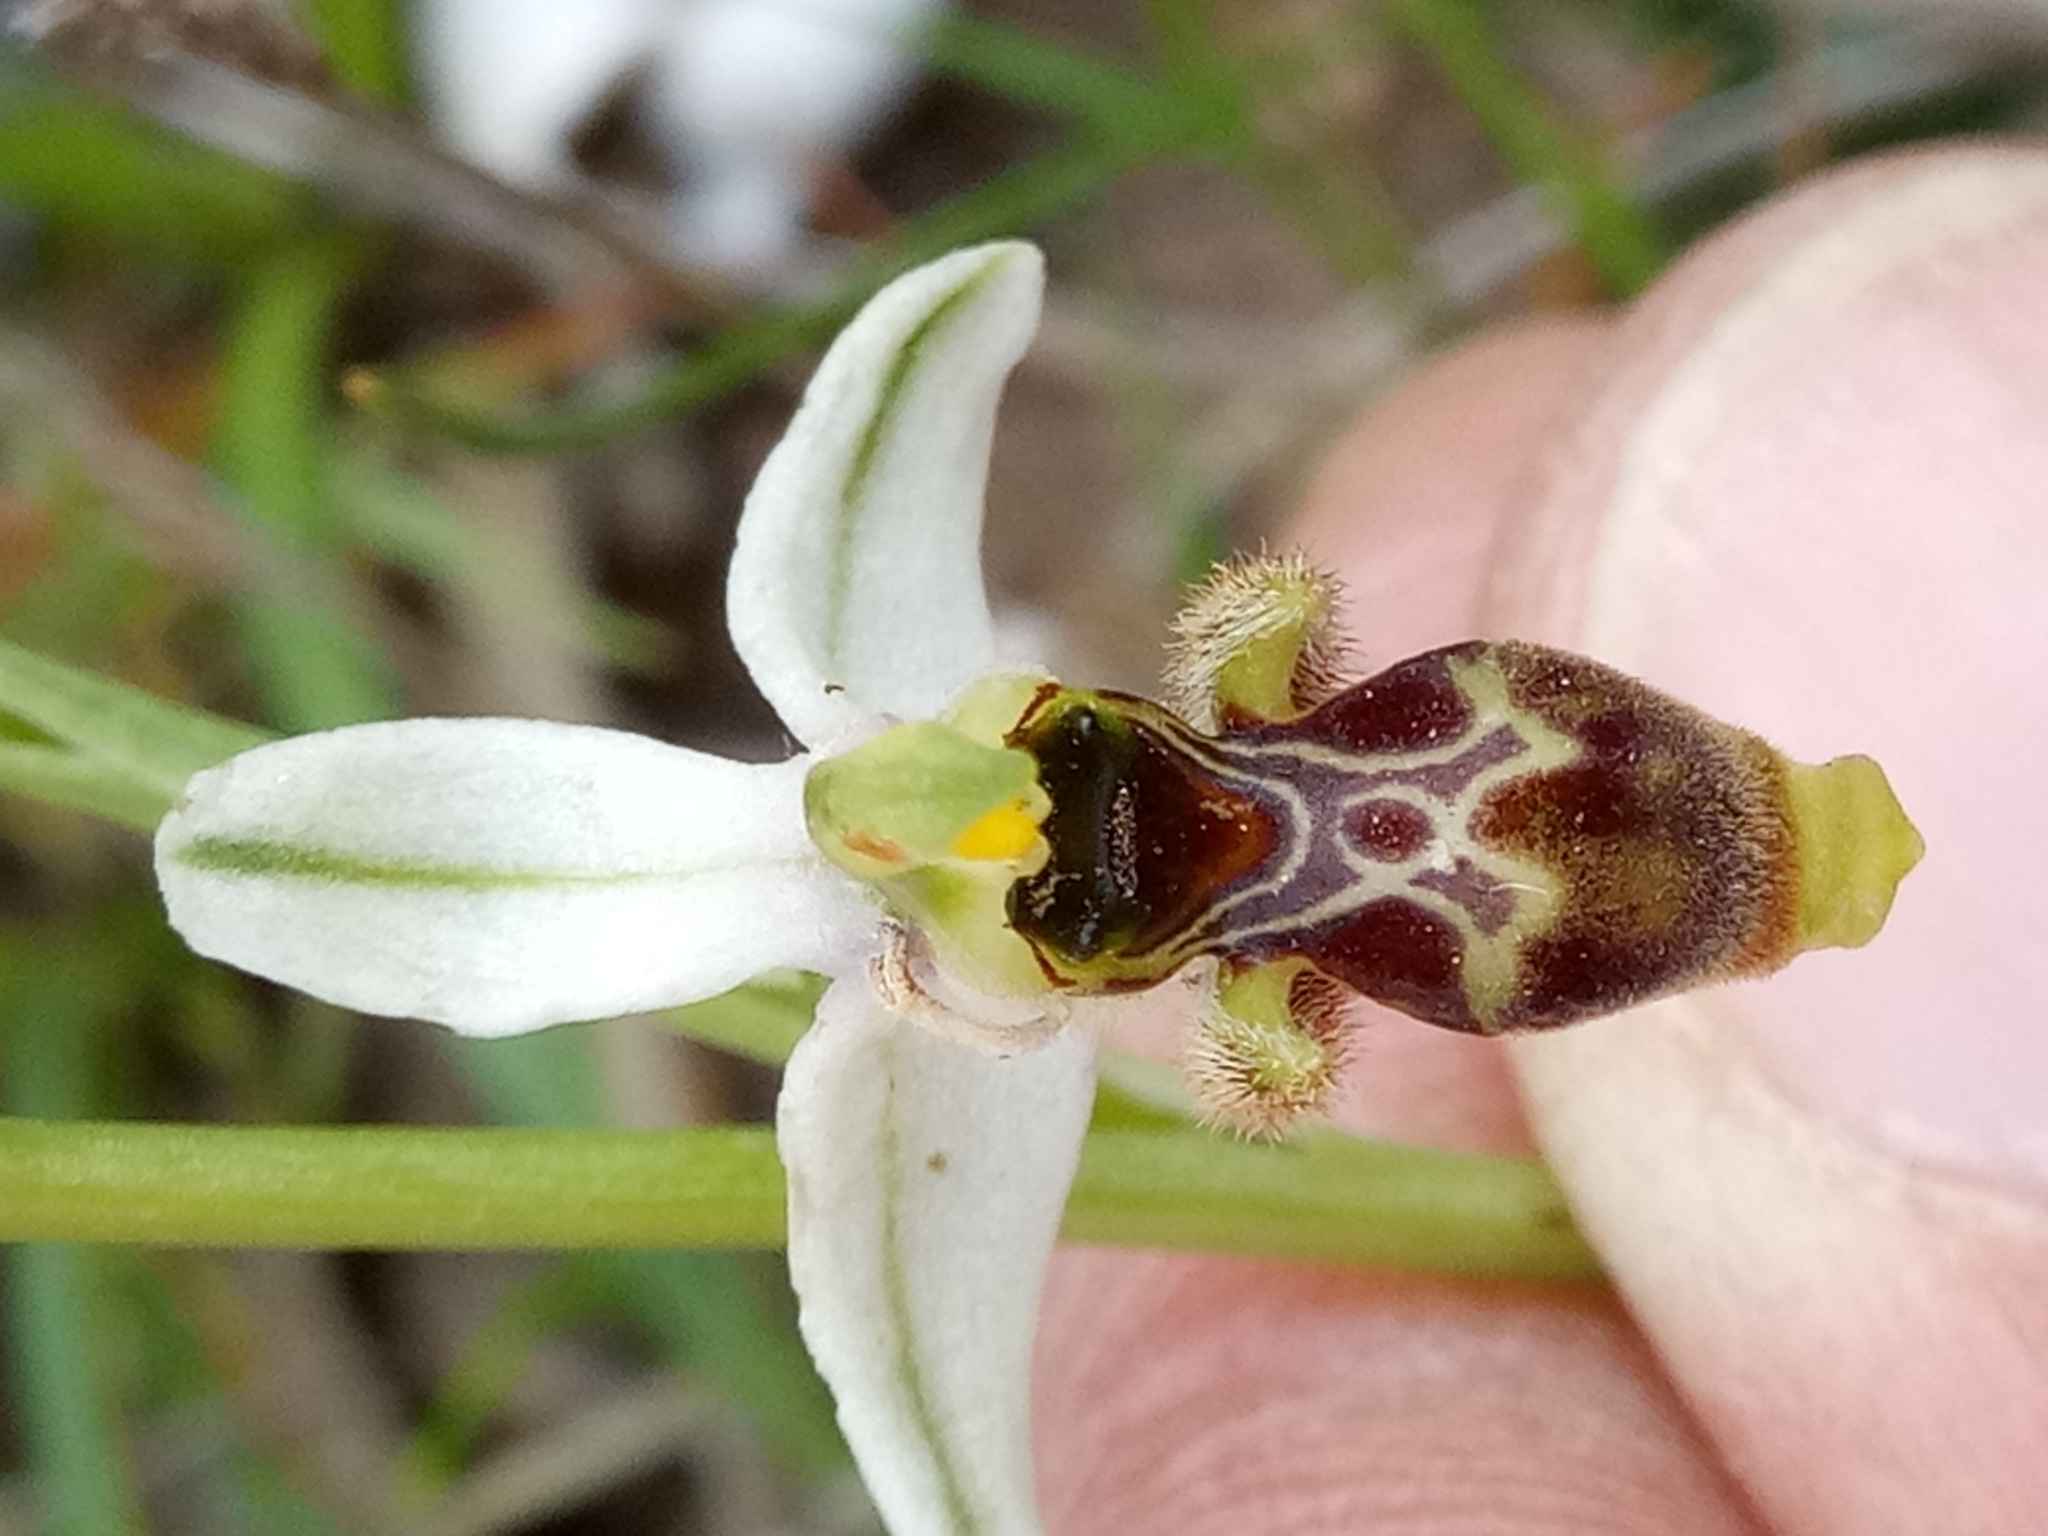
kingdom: Plantae
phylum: Tracheophyta
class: Liliopsida
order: Asparagales
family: Orchidaceae
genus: Ophrys
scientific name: Ophrys scolopax
